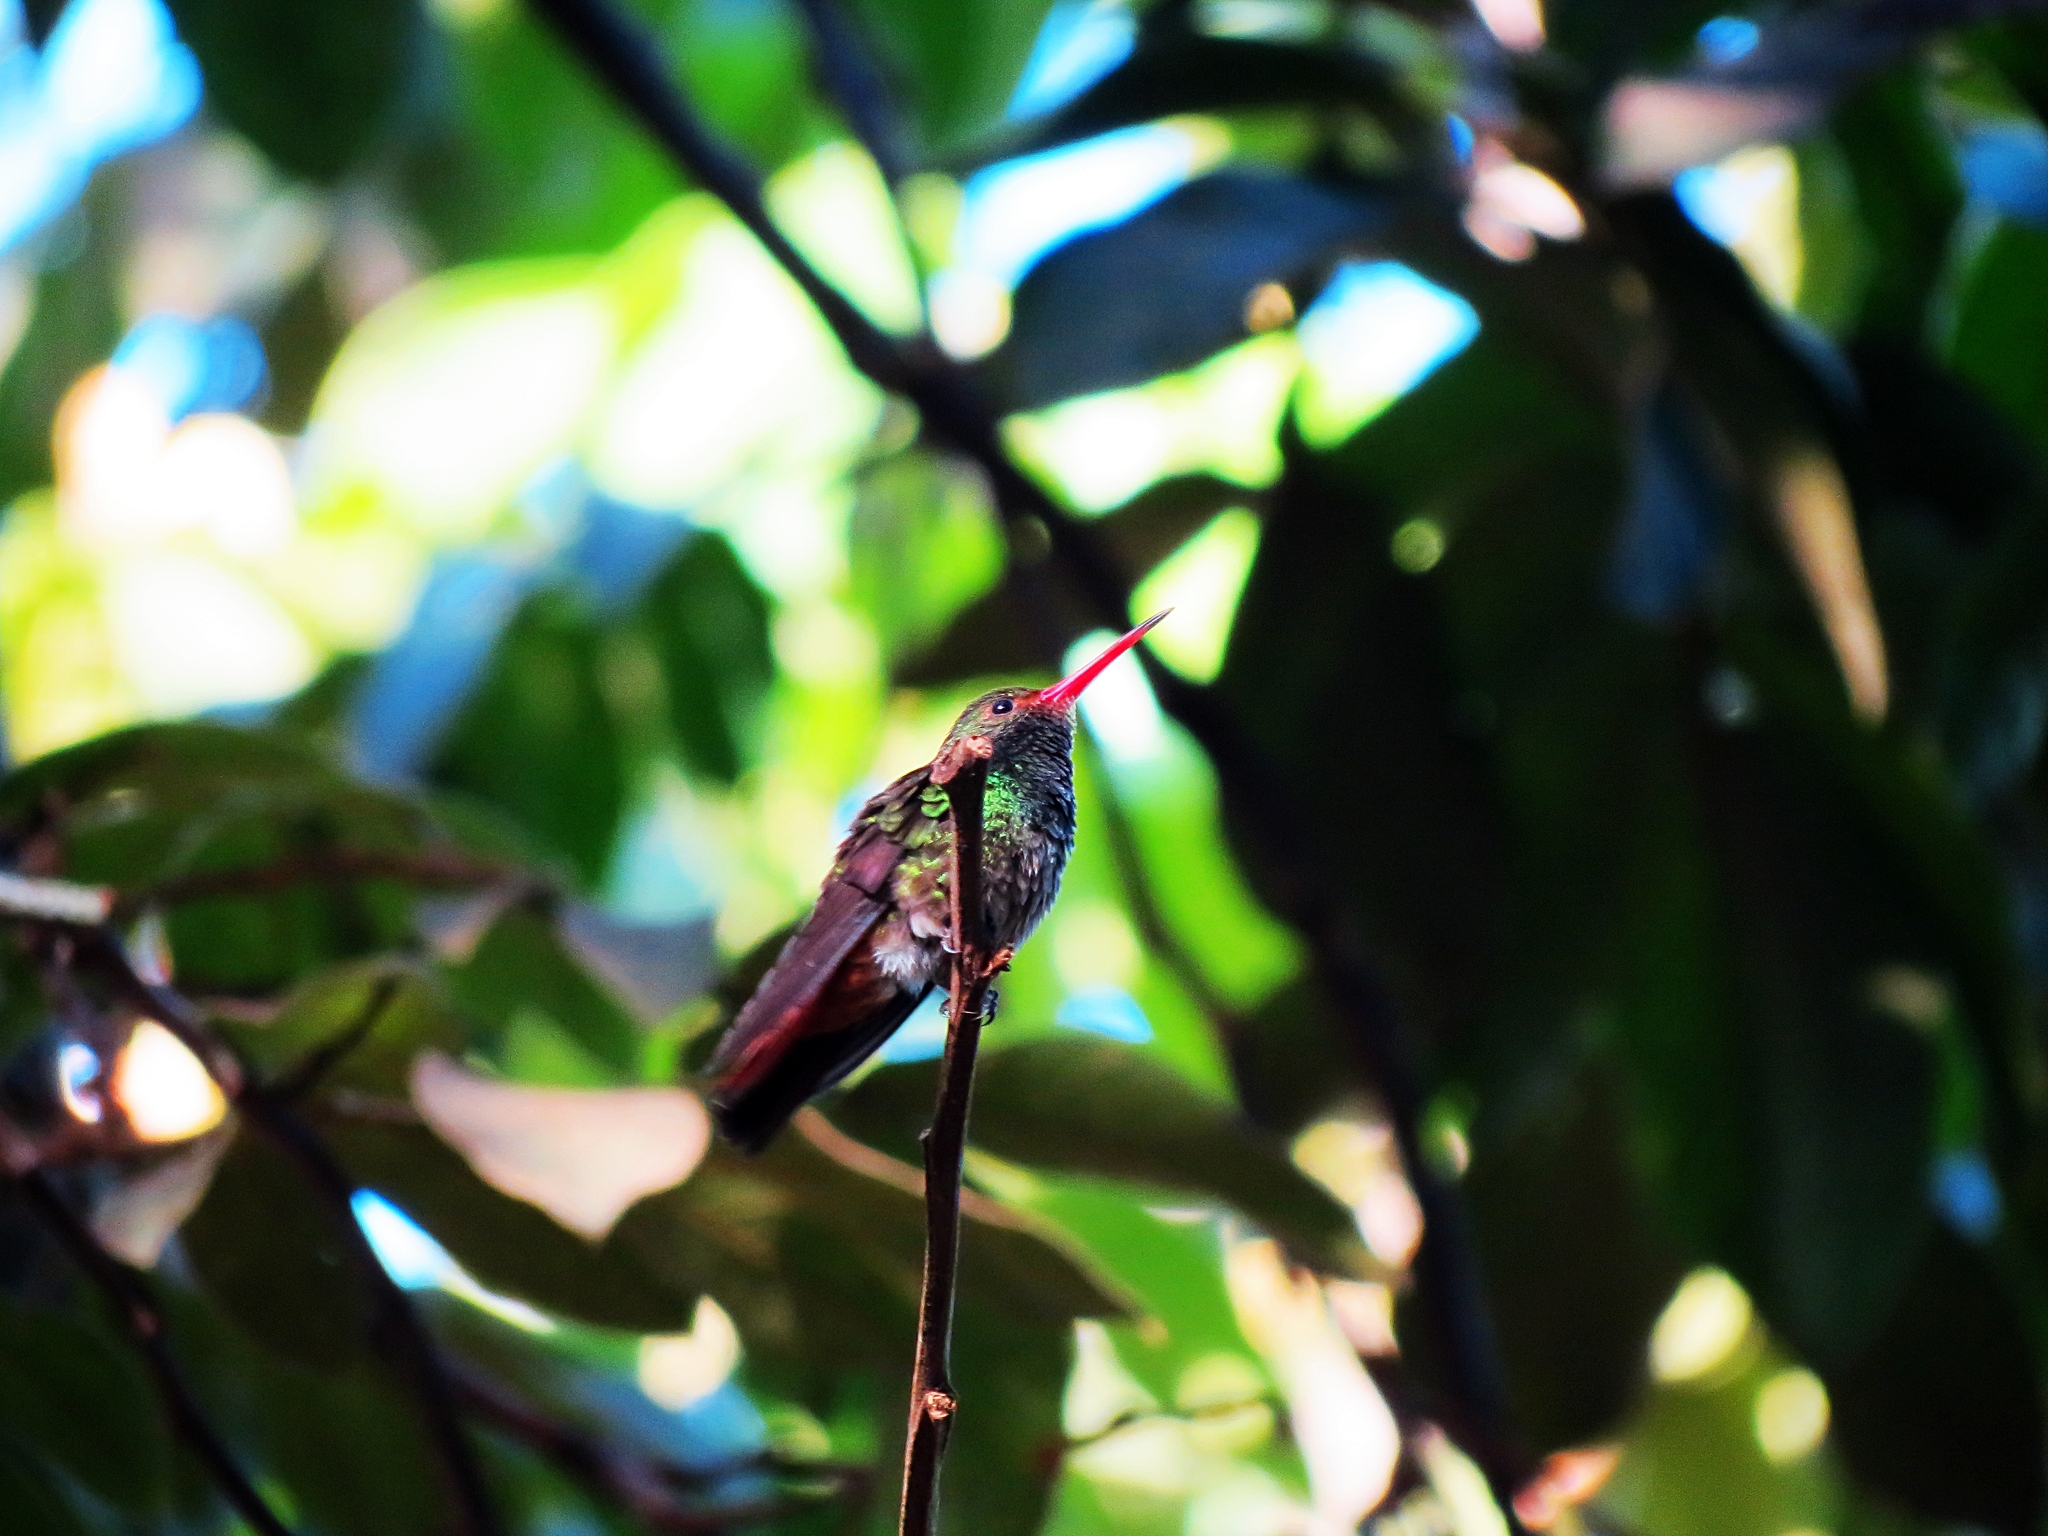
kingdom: Animalia
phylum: Chordata
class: Aves
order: Apodiformes
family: Trochilidae
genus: Amazilia
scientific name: Amazilia tzacatl
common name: Rufous-tailed hummingbird
